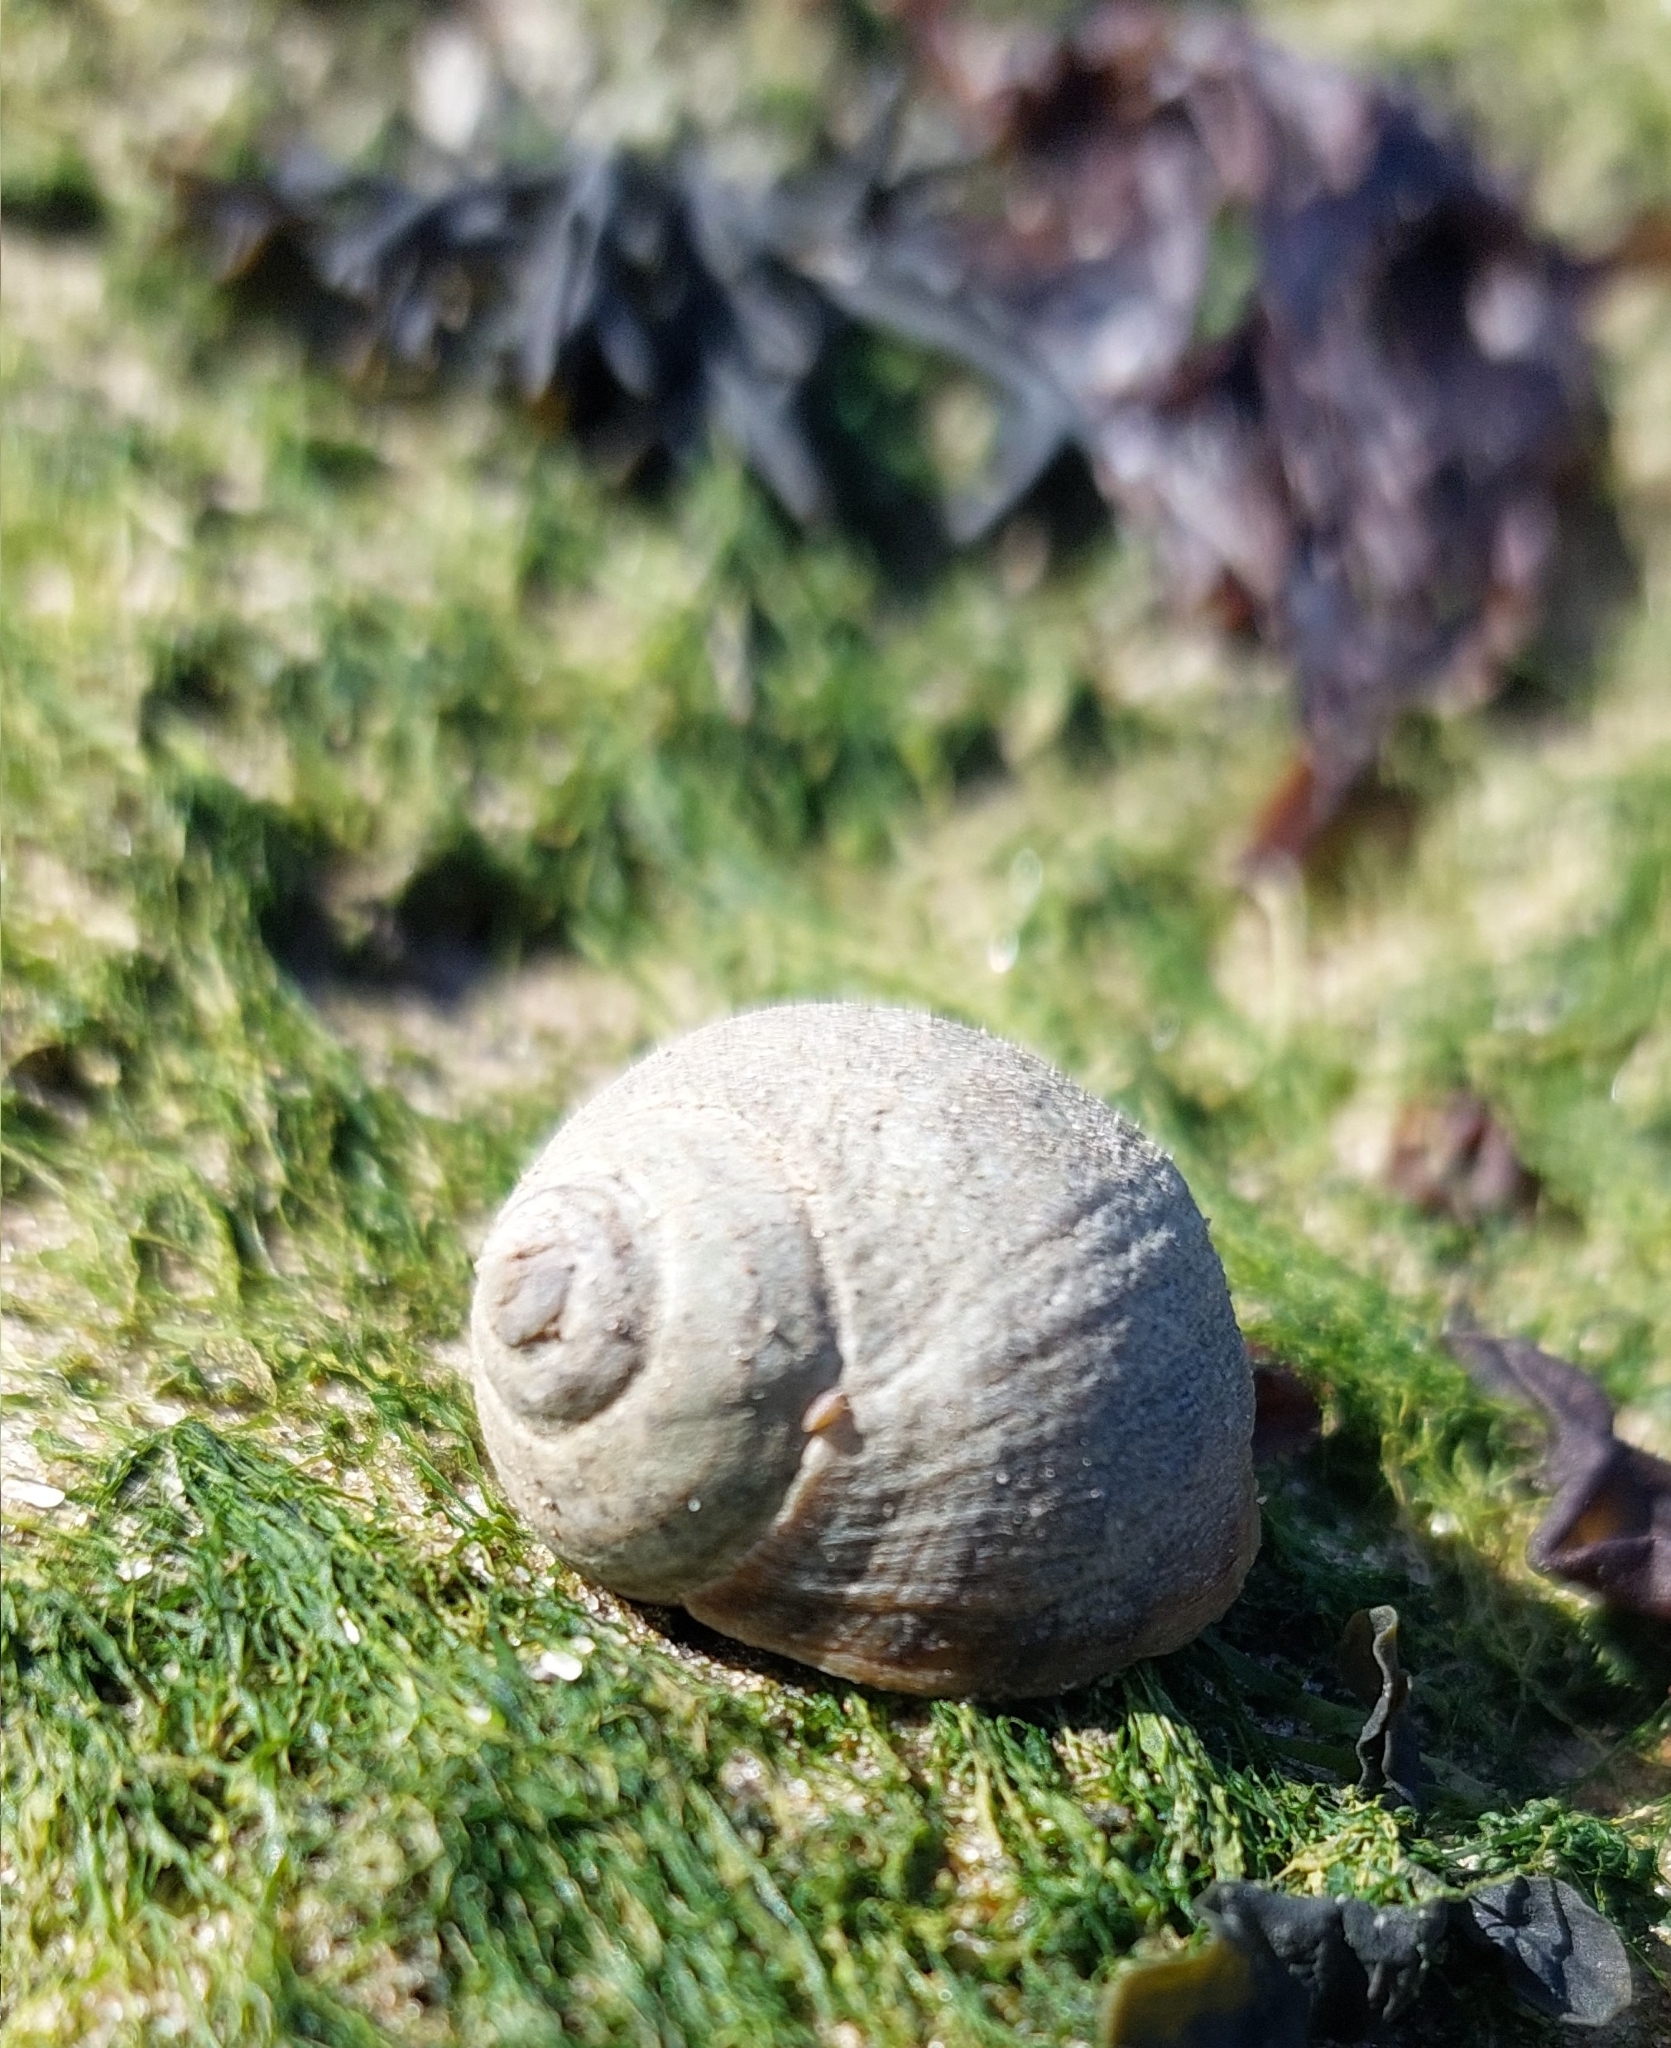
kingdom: Animalia
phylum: Mollusca
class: Gastropoda
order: Littorinimorpha
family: Littorinidae
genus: Littorina
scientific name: Littorina littorea
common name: Common periwinkle
